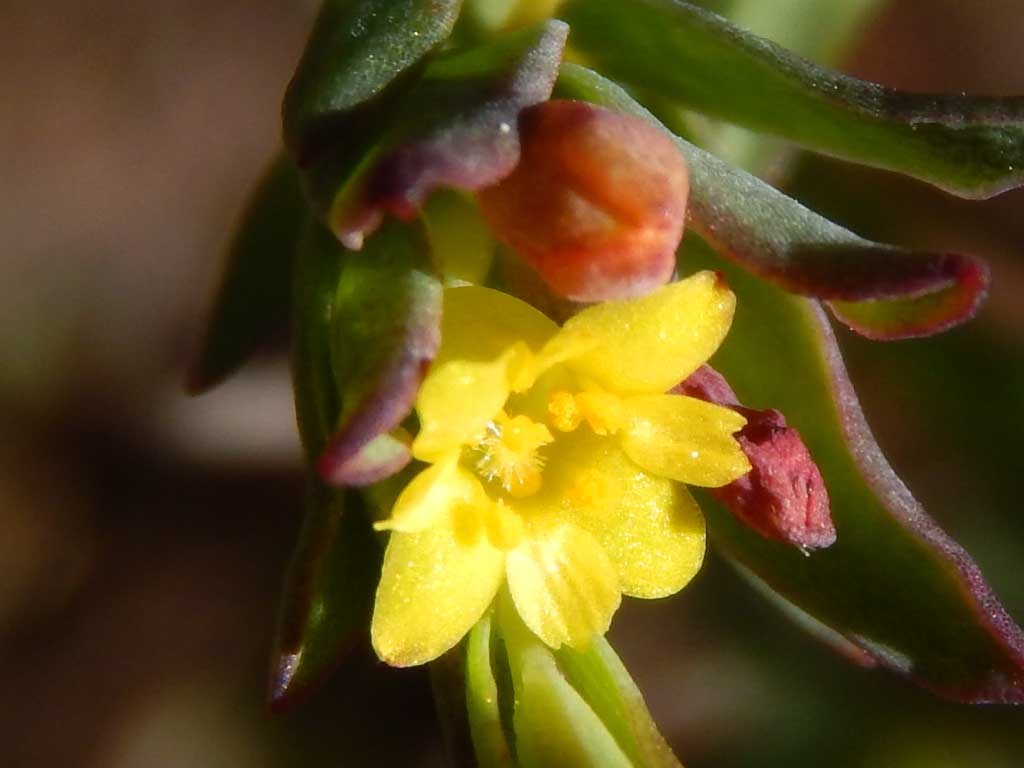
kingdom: Plantae
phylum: Tracheophyta
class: Magnoliopsida
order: Malvales
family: Thymelaeaceae
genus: Gnidia
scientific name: Gnidia juniperifolia
